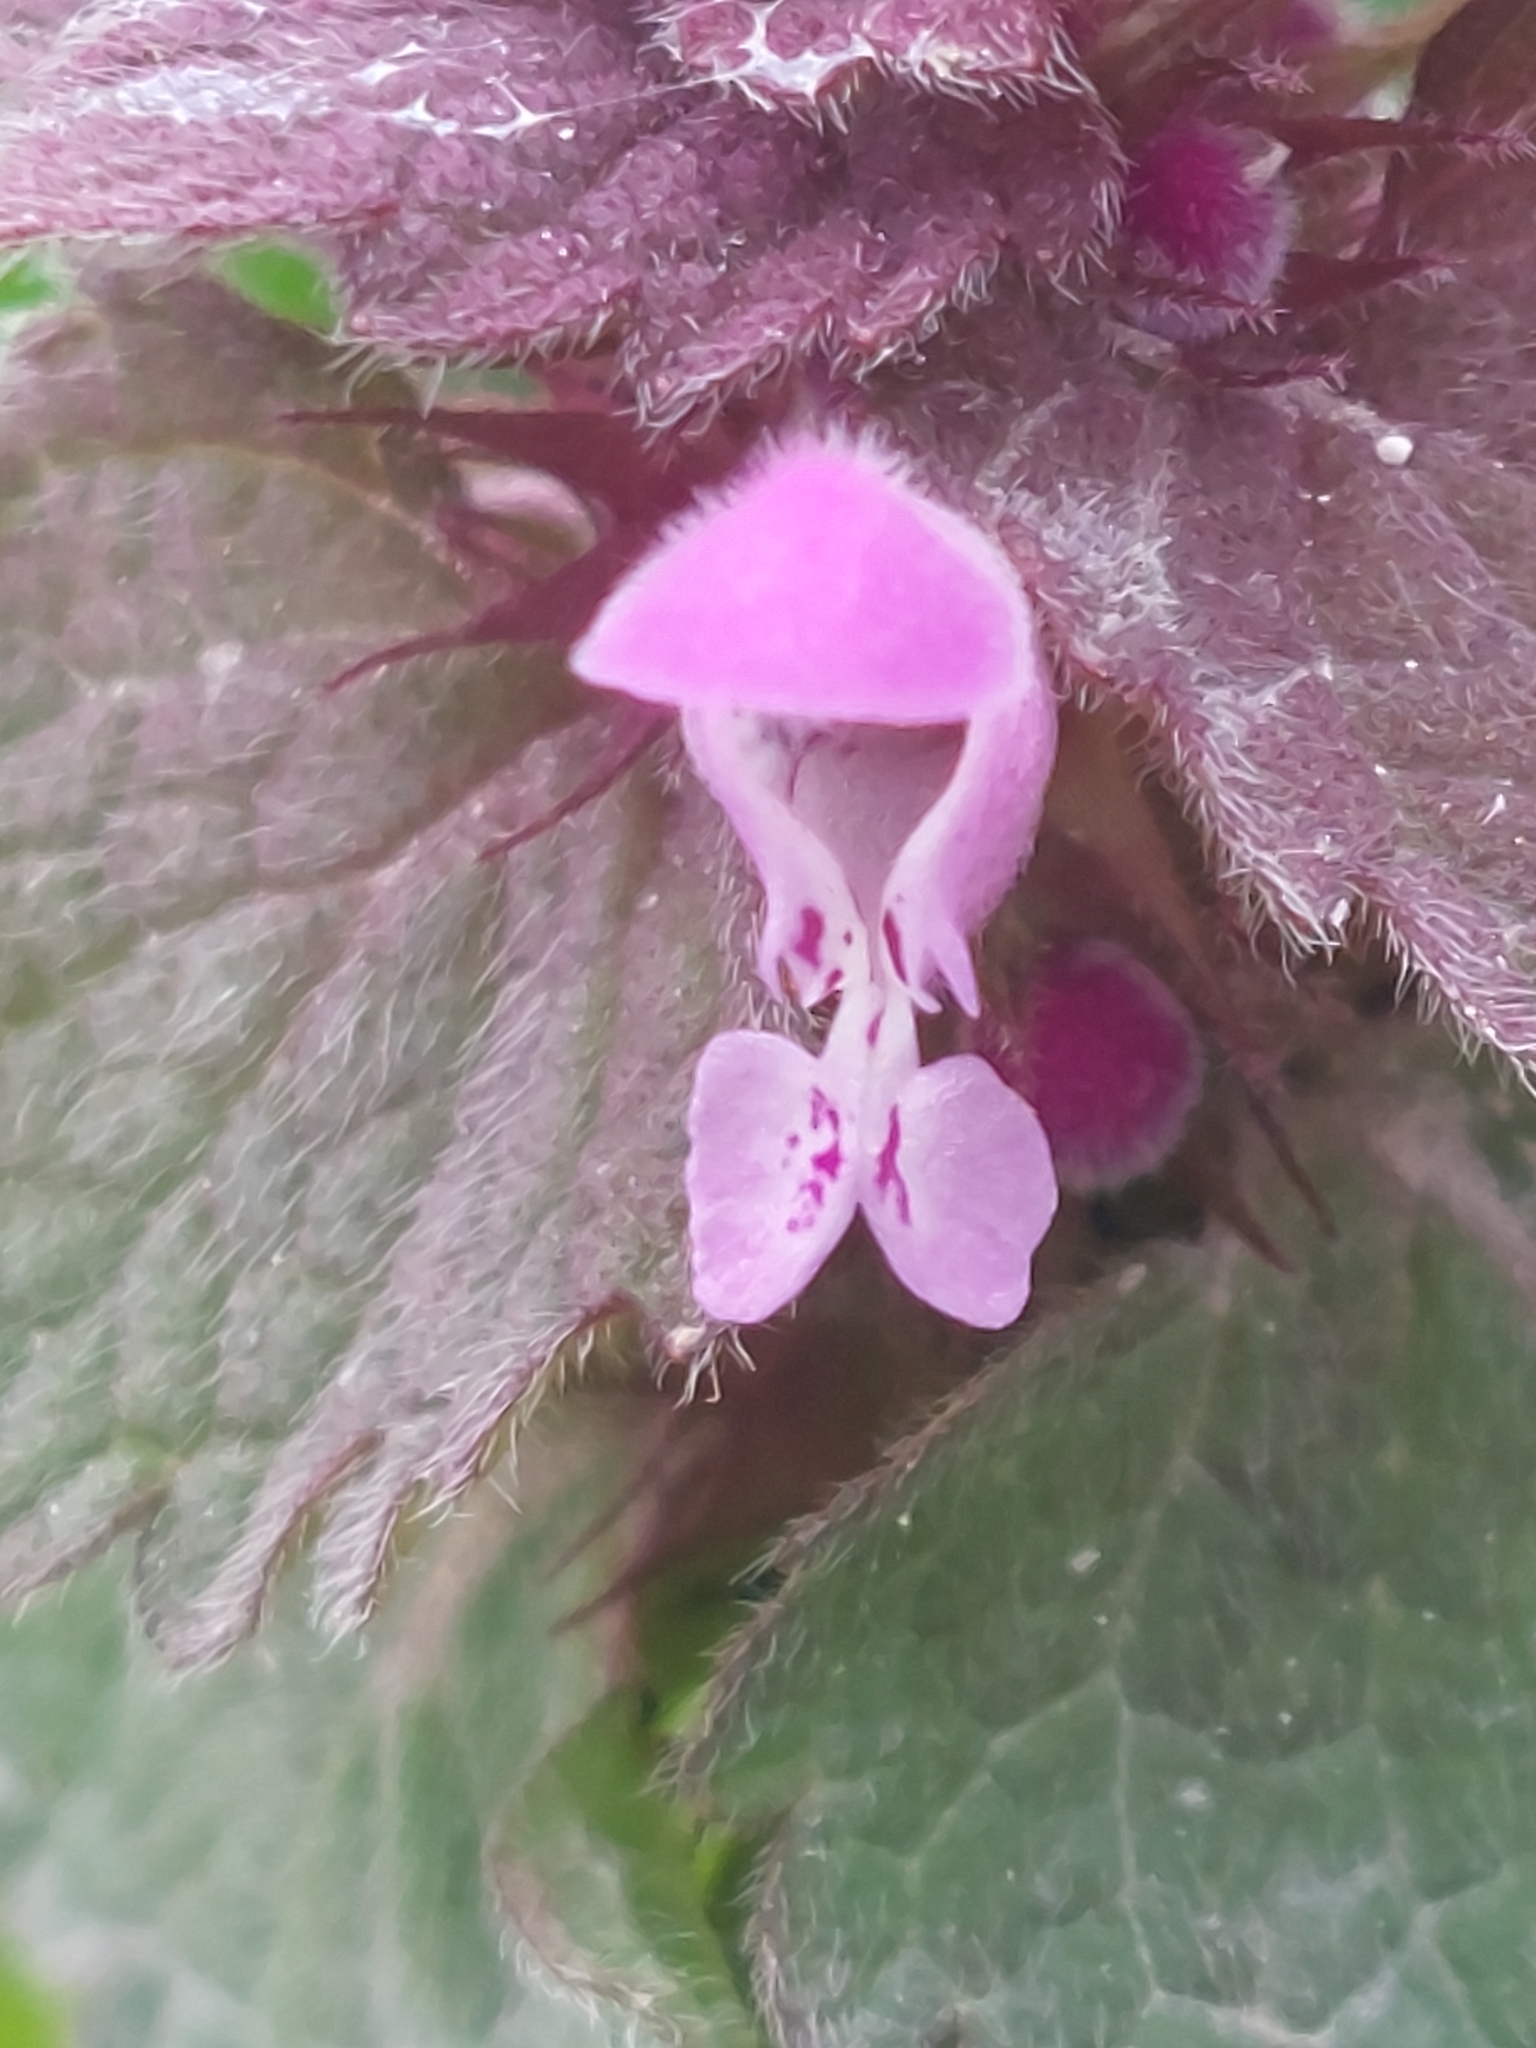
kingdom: Plantae
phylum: Tracheophyta
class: Magnoliopsida
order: Lamiales
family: Lamiaceae
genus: Lamium
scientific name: Lamium purpureum
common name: Red dead-nettle
